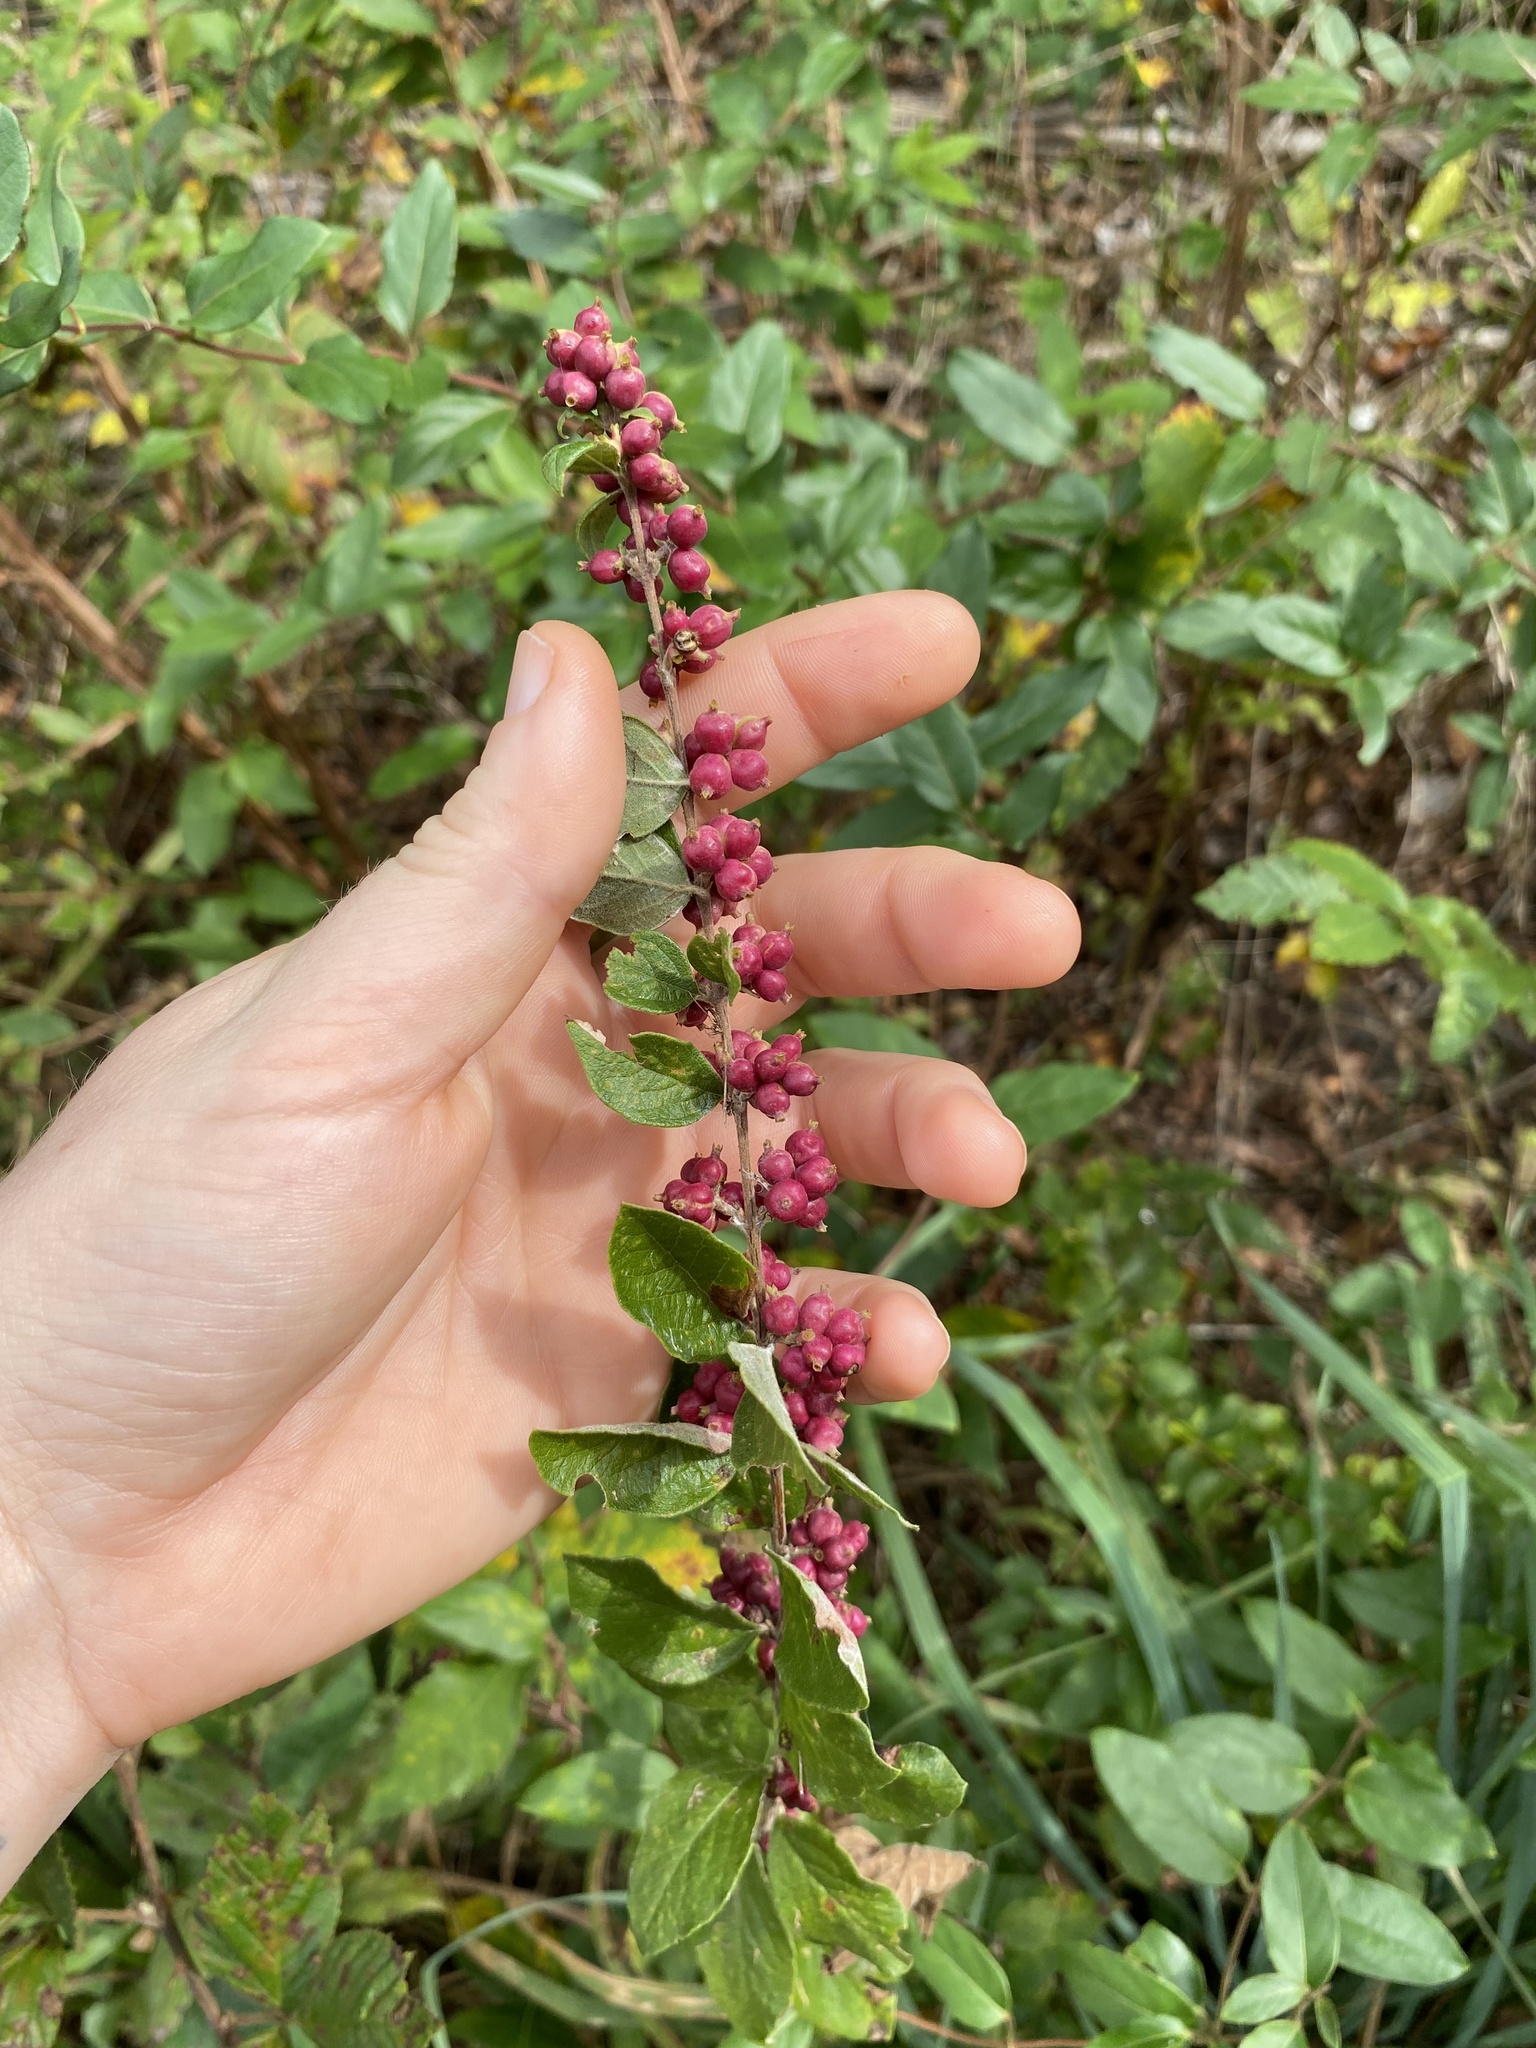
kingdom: Plantae
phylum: Tracheophyta
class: Magnoliopsida
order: Dipsacales
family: Caprifoliaceae
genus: Symphoricarpos
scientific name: Symphoricarpos orbiculatus
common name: Coralberry
